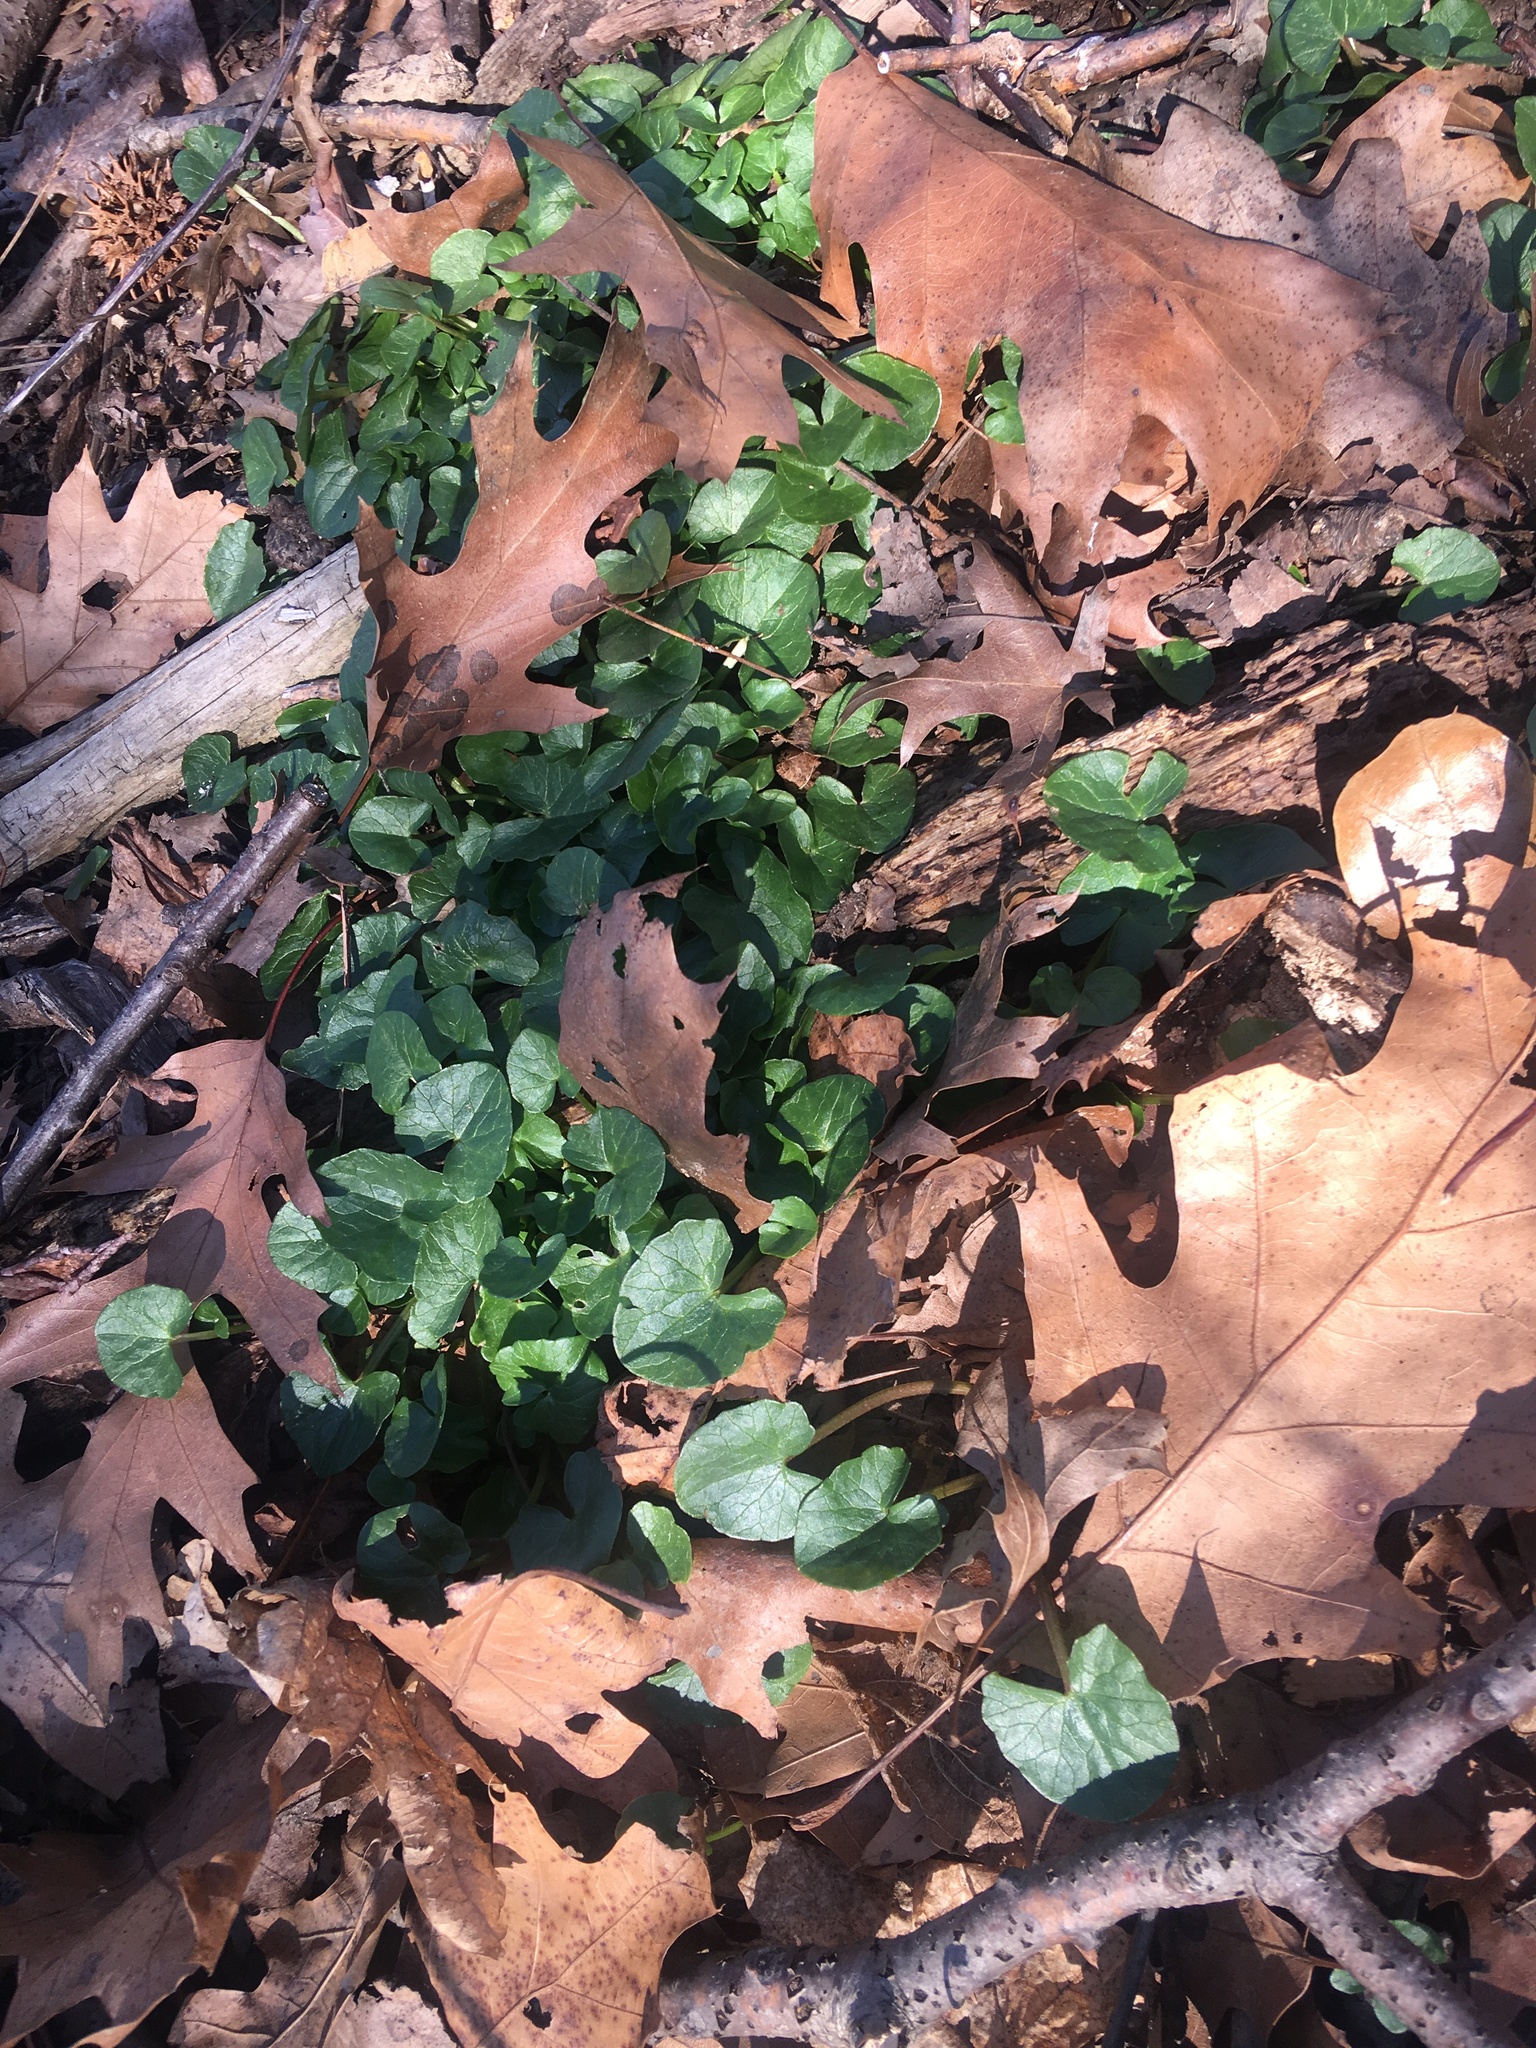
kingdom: Plantae
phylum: Tracheophyta
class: Magnoliopsida
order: Ranunculales
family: Ranunculaceae
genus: Ficaria
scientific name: Ficaria verna
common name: Lesser celandine
